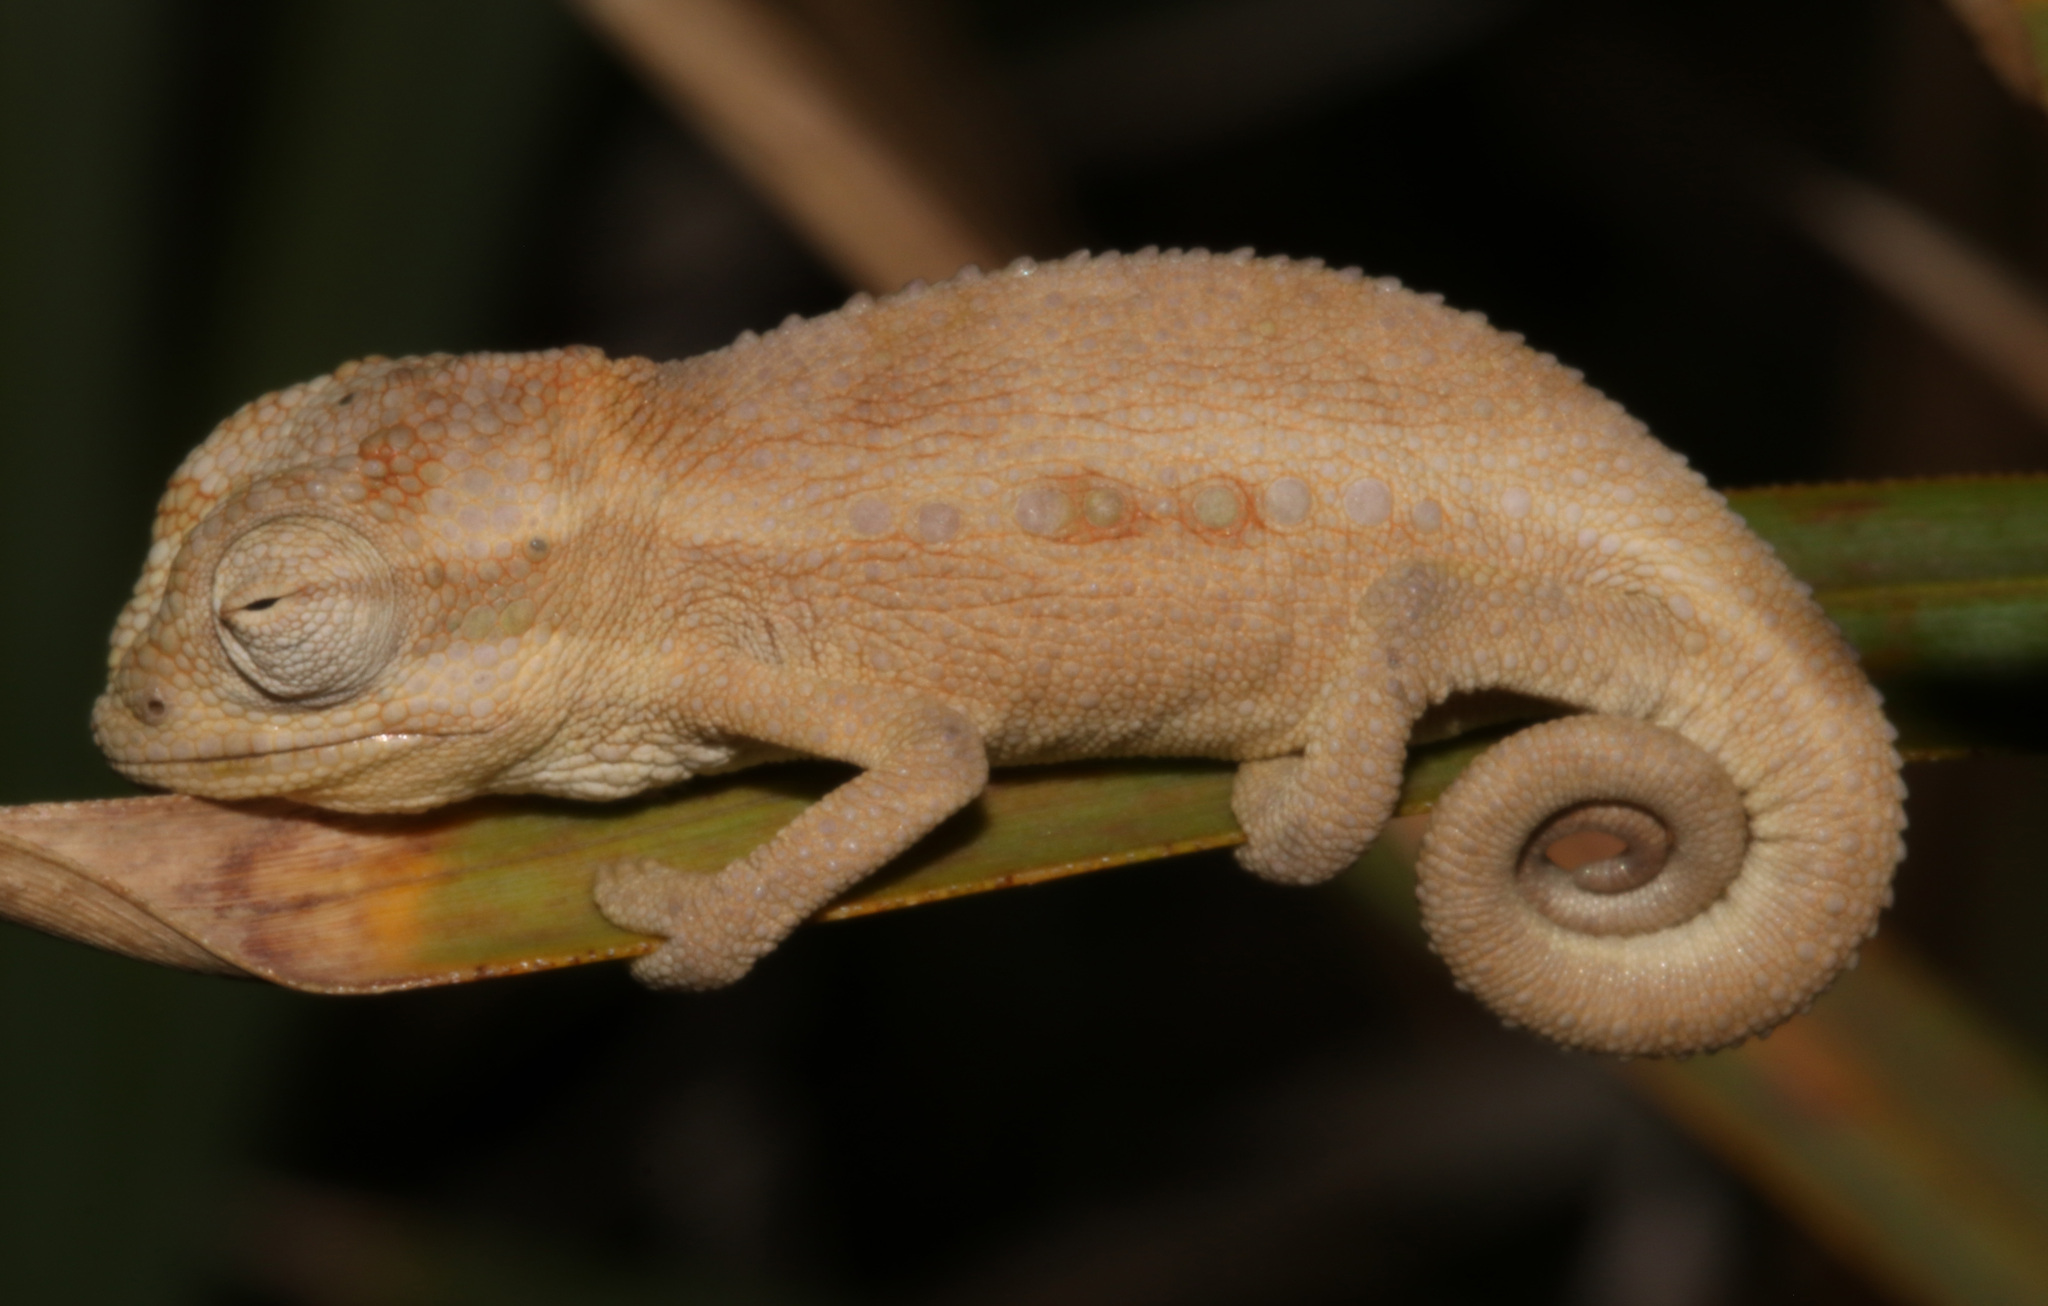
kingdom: Animalia
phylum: Chordata
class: Squamata
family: Chamaeleonidae
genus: Bradypodion
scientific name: Bradypodion pumilum
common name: Cape dwarf chameleon
